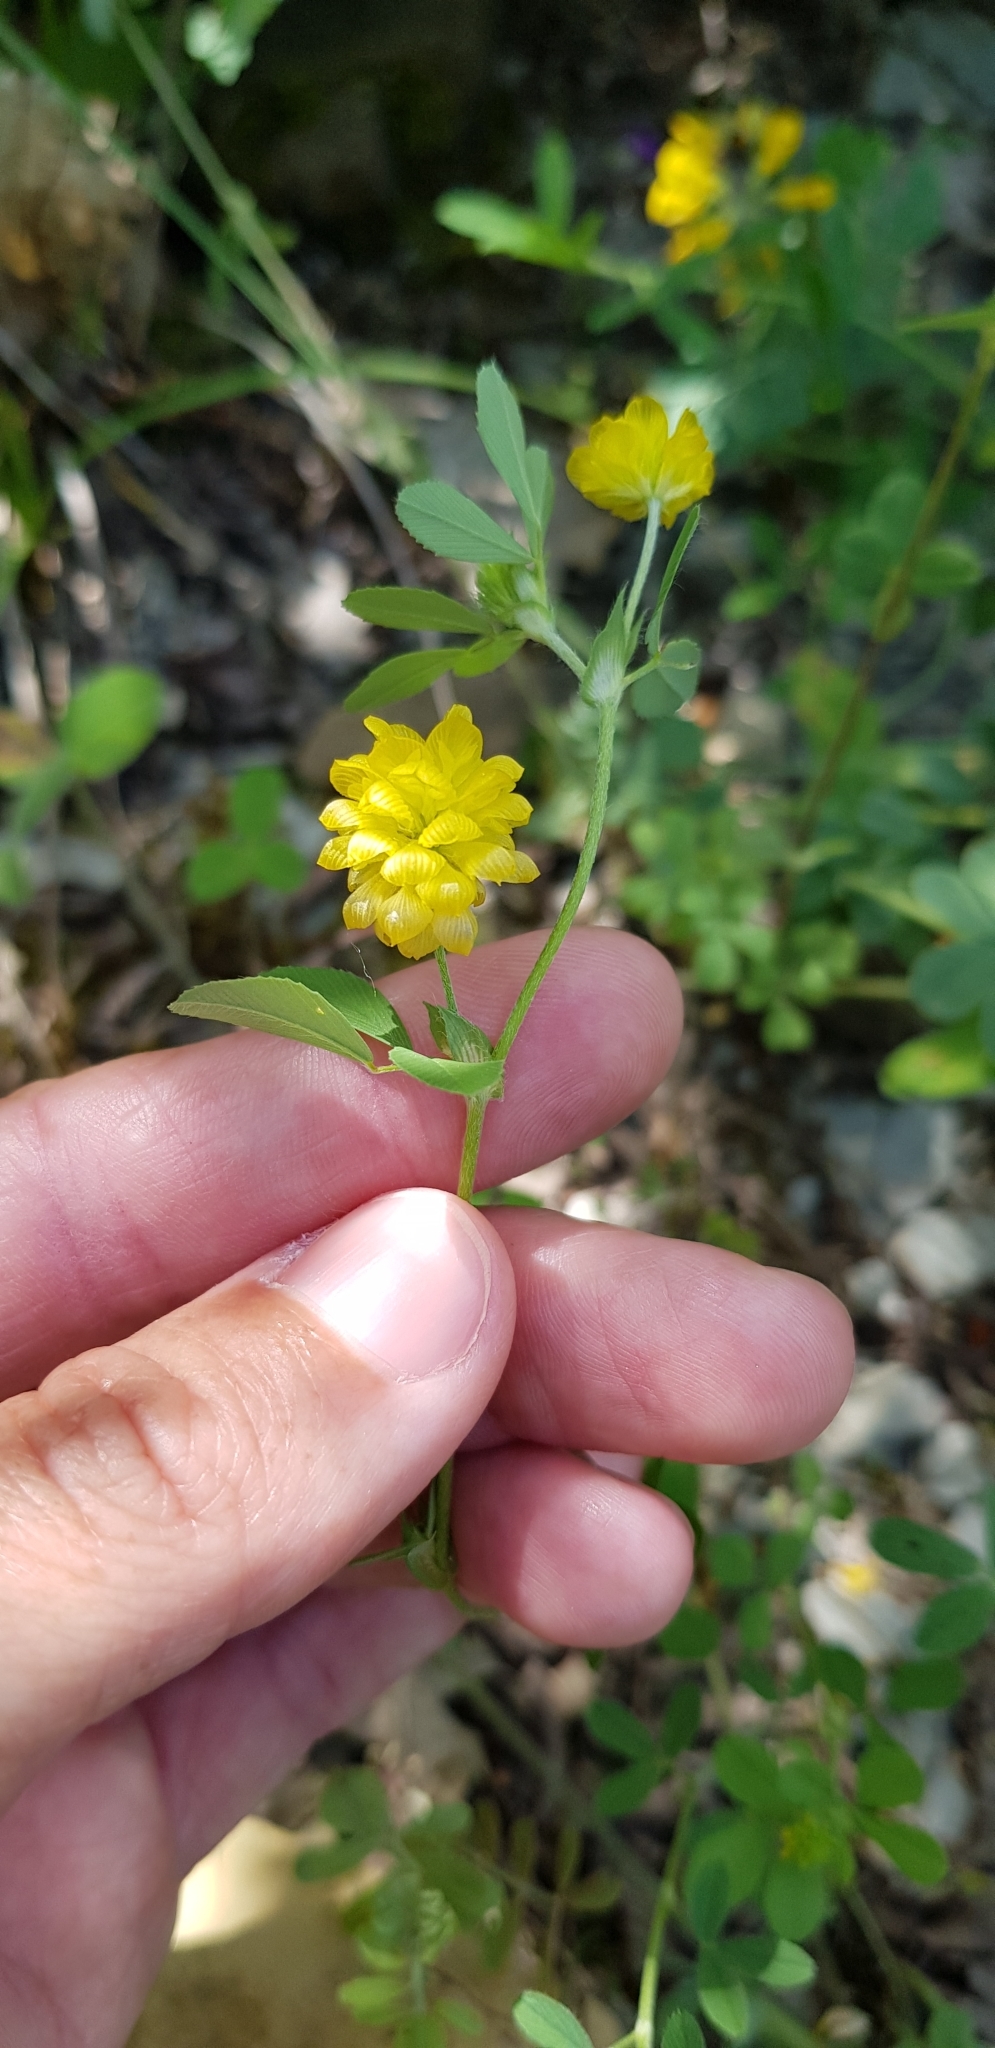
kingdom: Plantae
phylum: Tracheophyta
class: Magnoliopsida
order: Fabales
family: Fabaceae
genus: Trifolium
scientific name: Trifolium campestre
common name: Field clover
